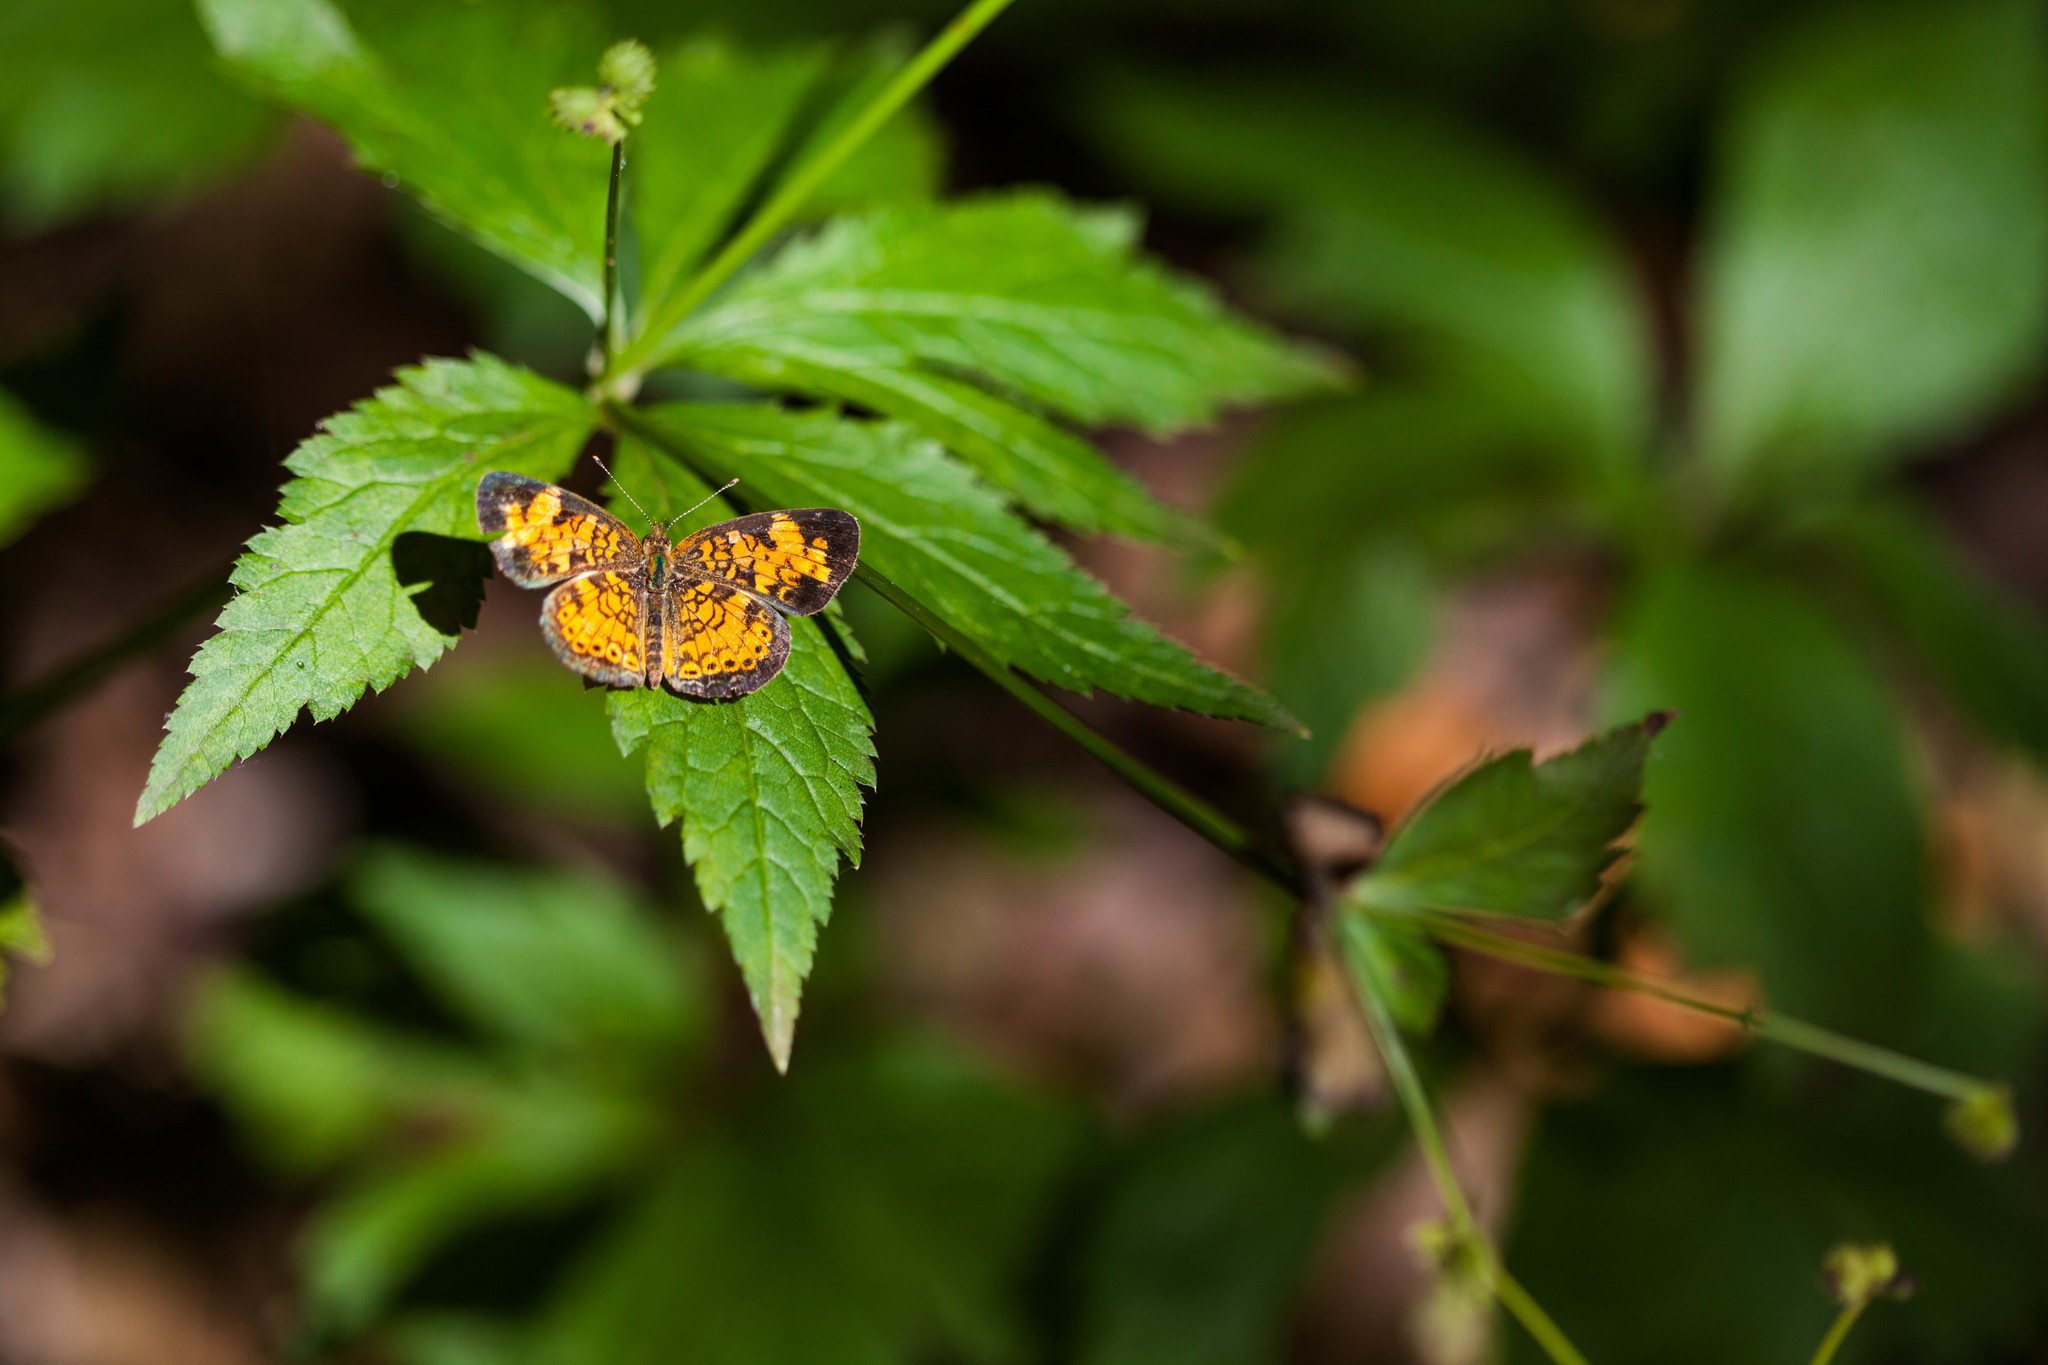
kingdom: Animalia
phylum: Arthropoda
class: Insecta
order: Lepidoptera
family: Nymphalidae
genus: Phyciodes
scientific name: Phyciodes tharos
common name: Pearl crescent
